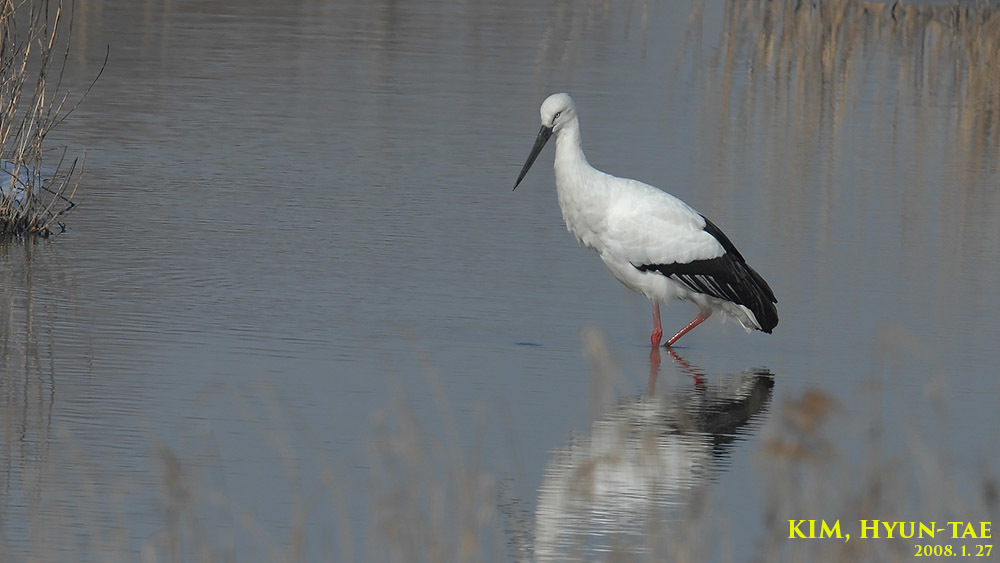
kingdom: Animalia
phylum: Chordata
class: Aves
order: Ciconiiformes
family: Ciconiidae
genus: Ciconia
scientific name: Ciconia boyciana
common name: Oriental stork
